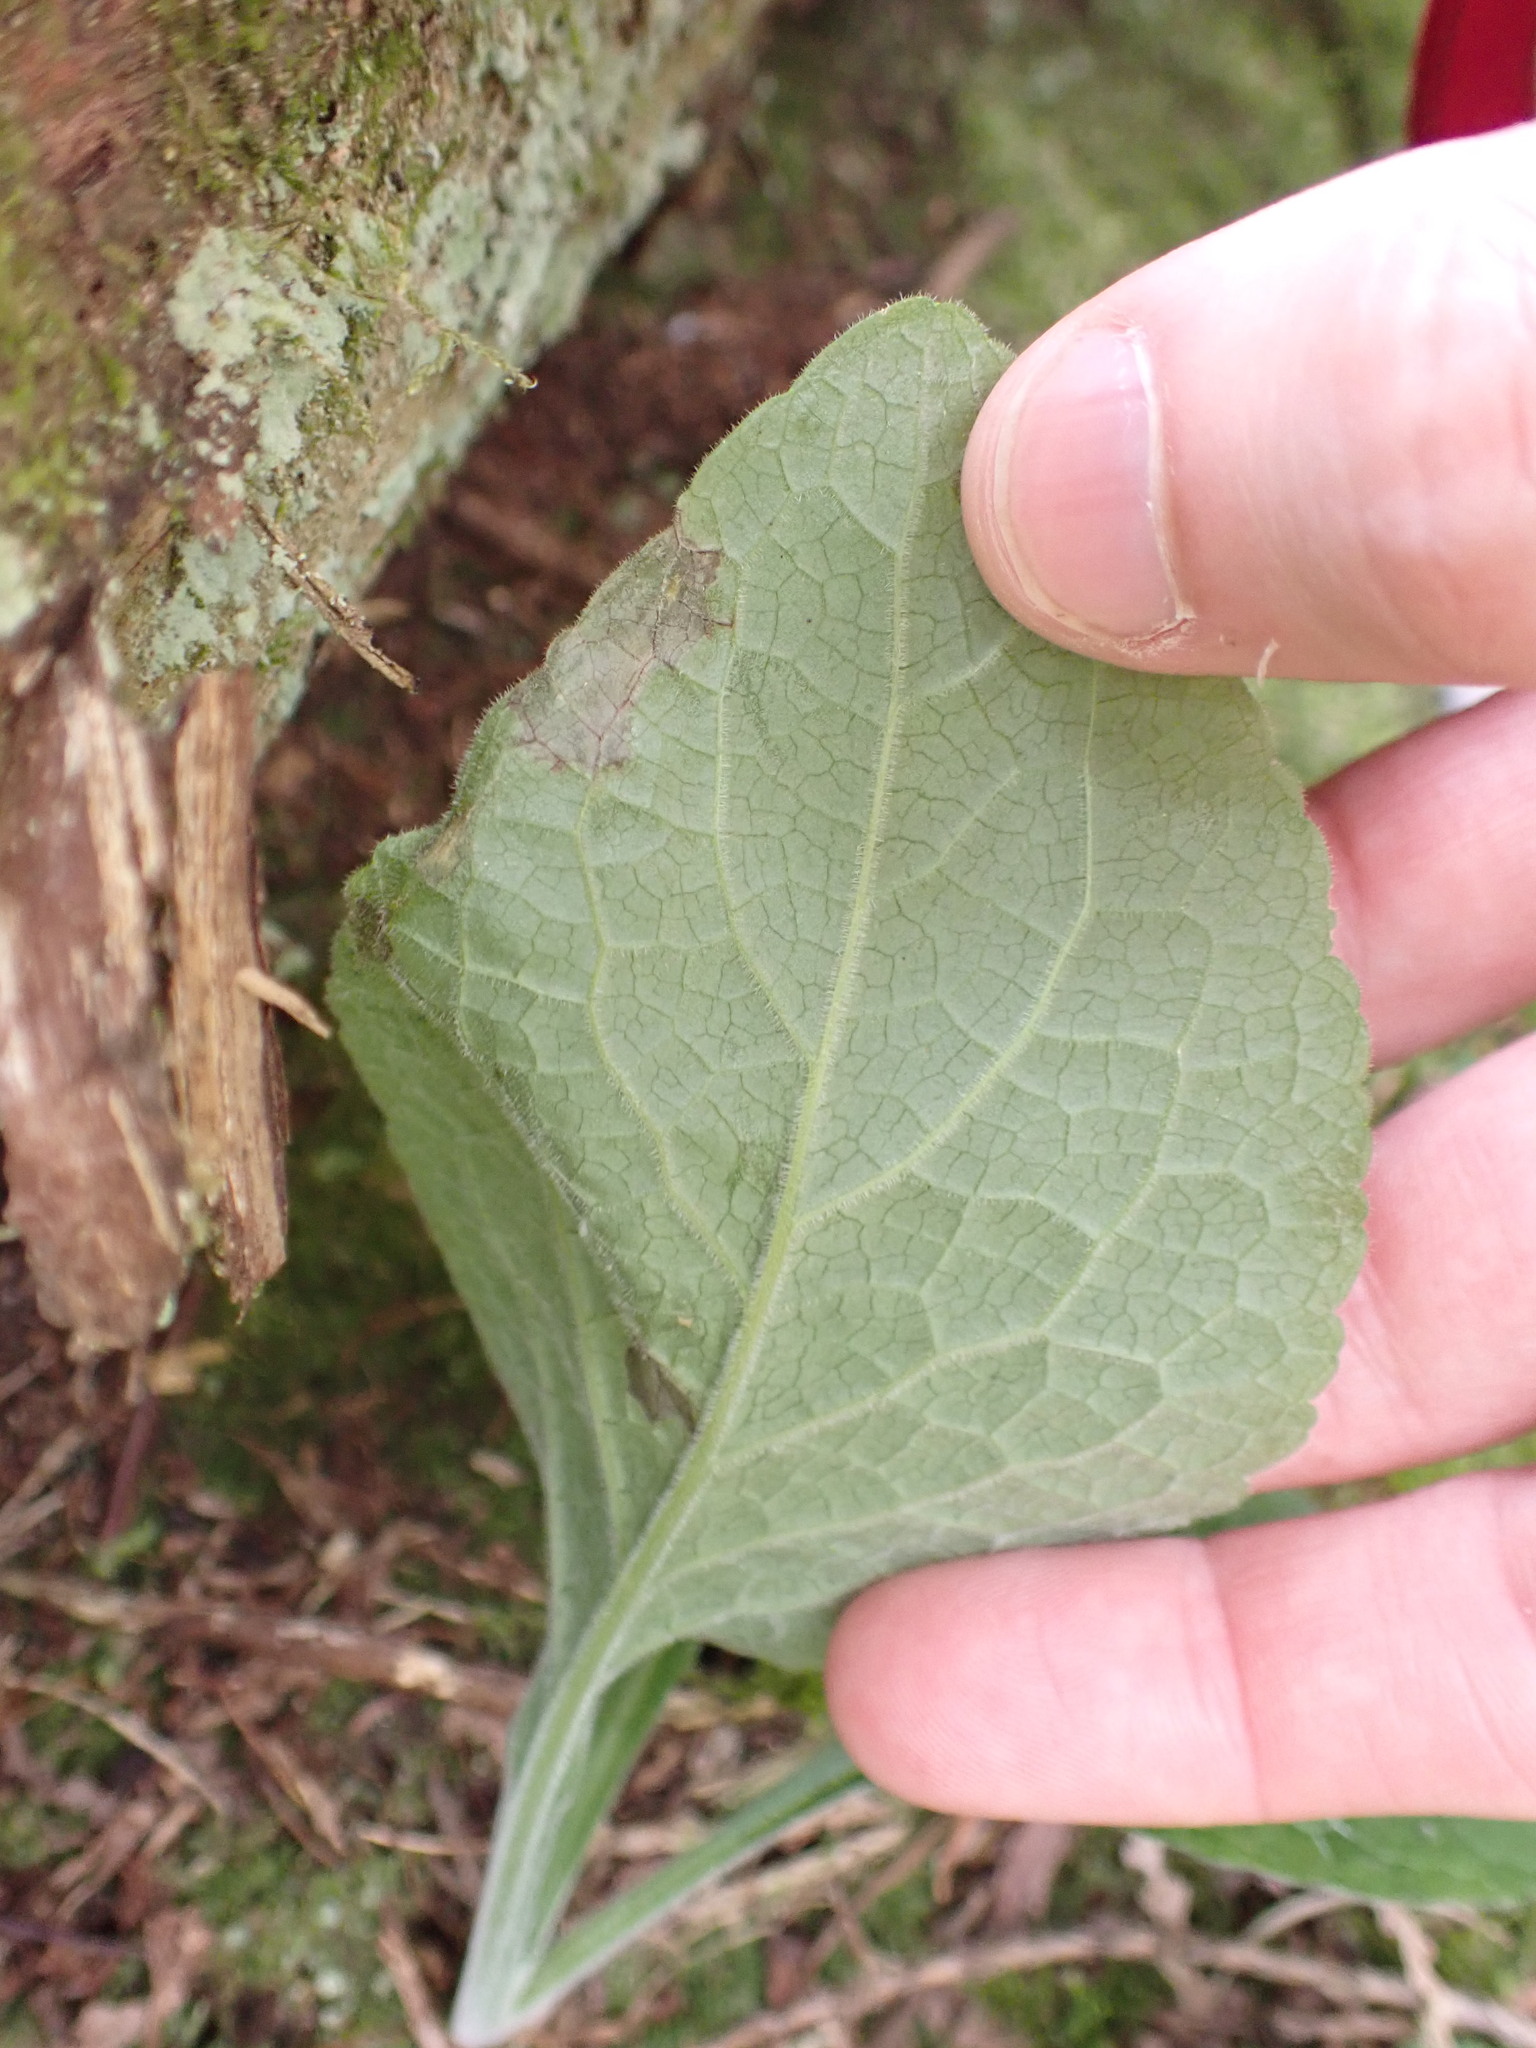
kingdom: Plantae
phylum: Tracheophyta
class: Magnoliopsida
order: Lamiales
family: Plantaginaceae
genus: Digitalis
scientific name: Digitalis purpurea
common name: Foxglove
